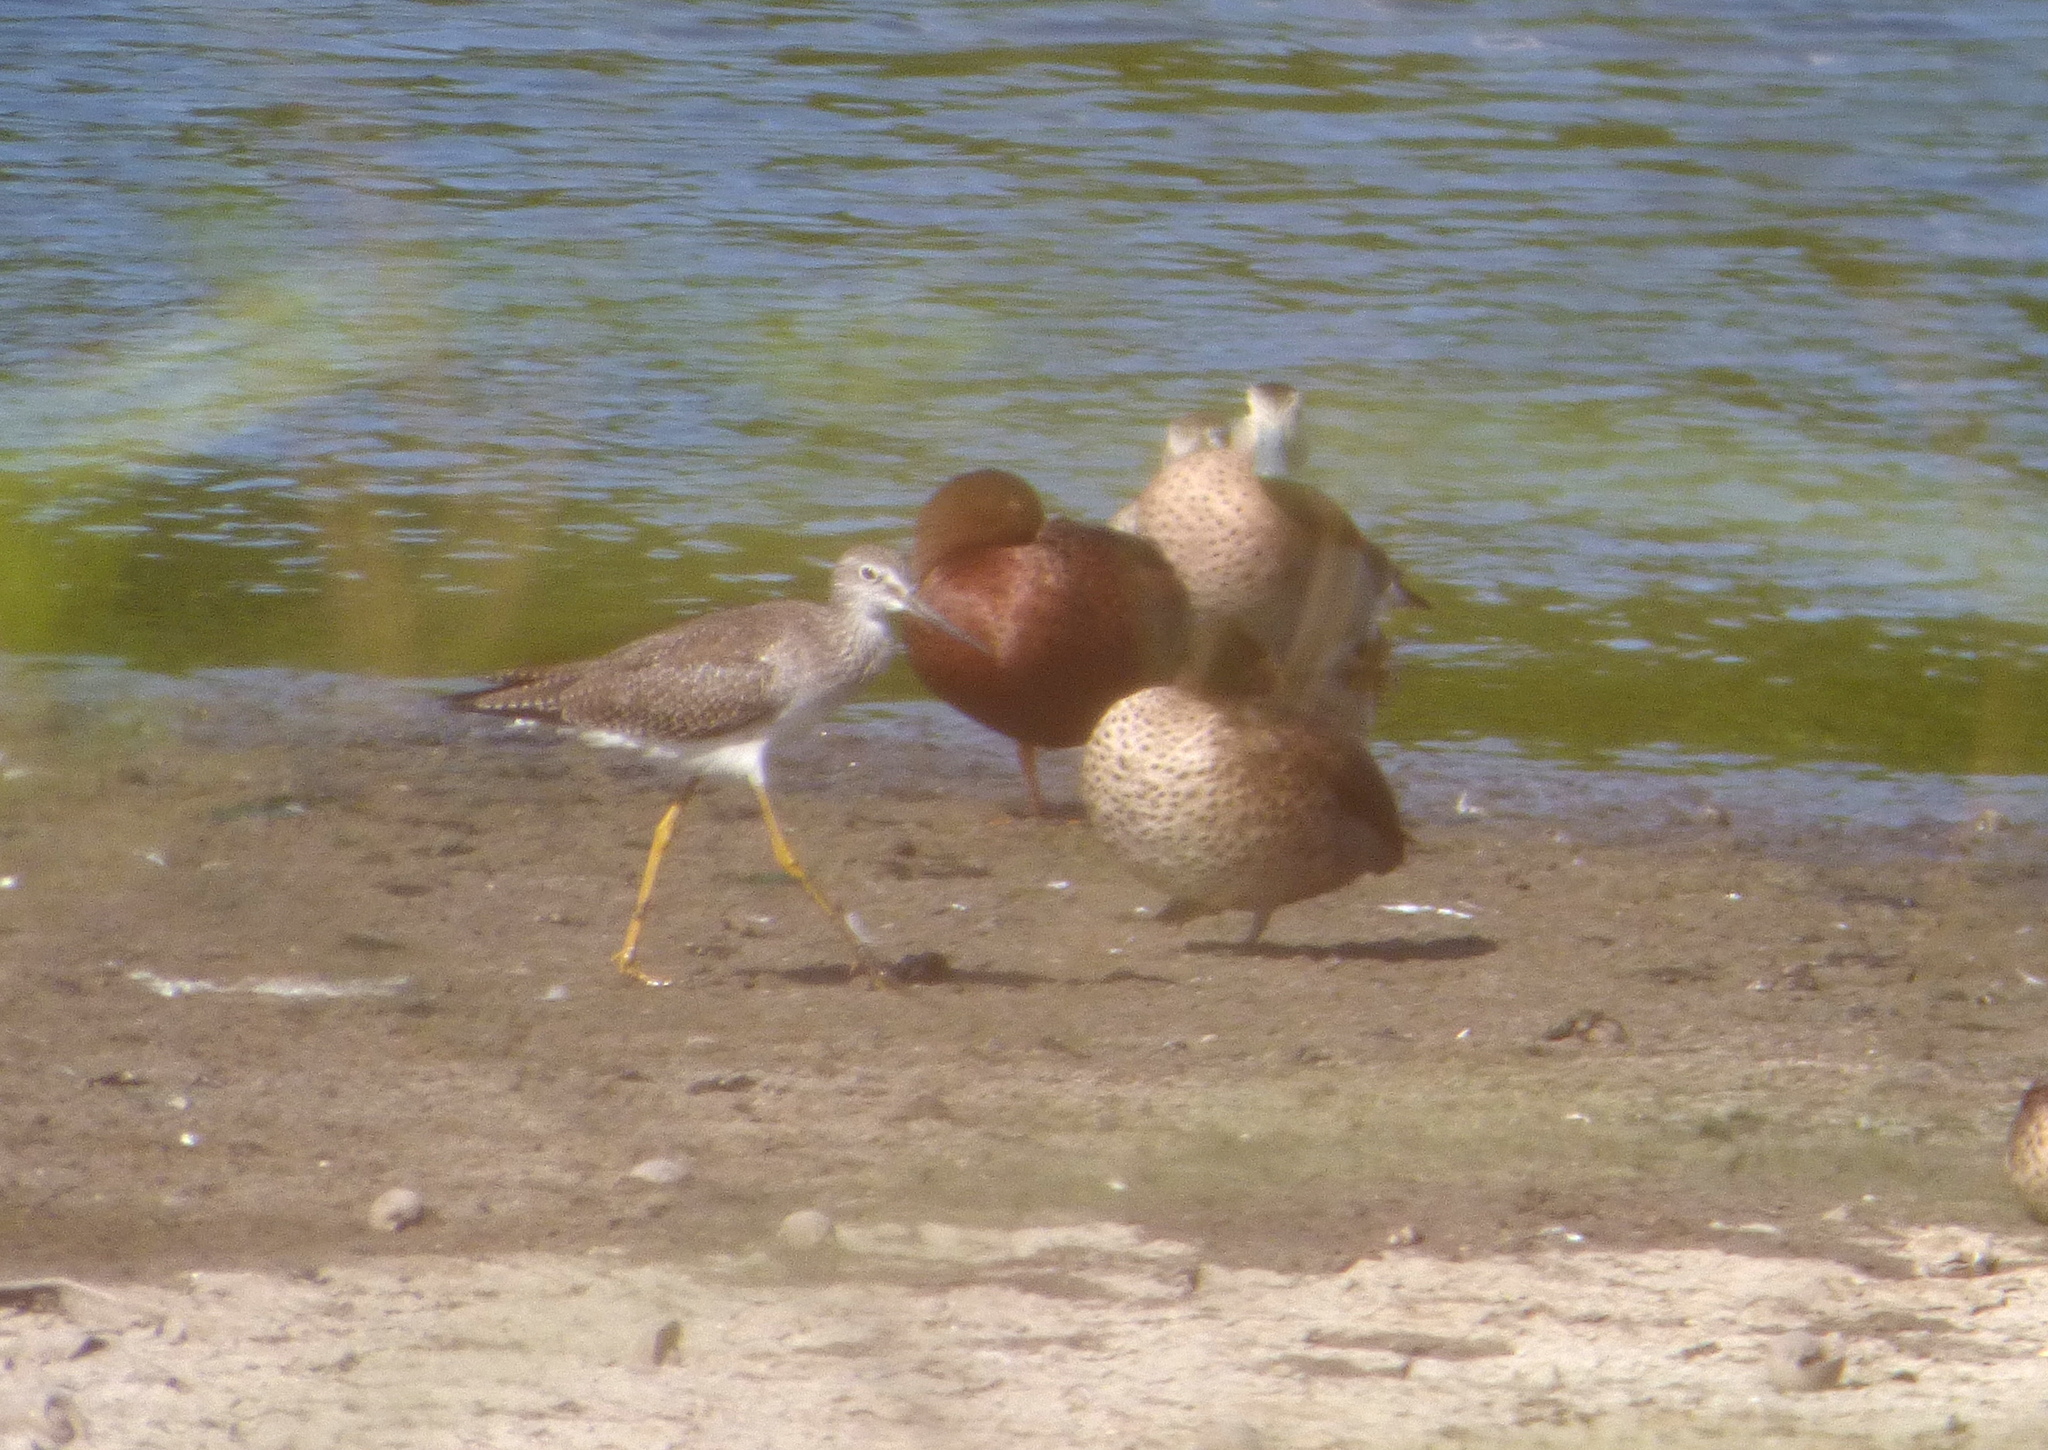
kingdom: Animalia
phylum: Chordata
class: Aves
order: Charadriiformes
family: Scolopacidae
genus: Tringa
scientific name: Tringa melanoleuca
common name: Greater yellowlegs
